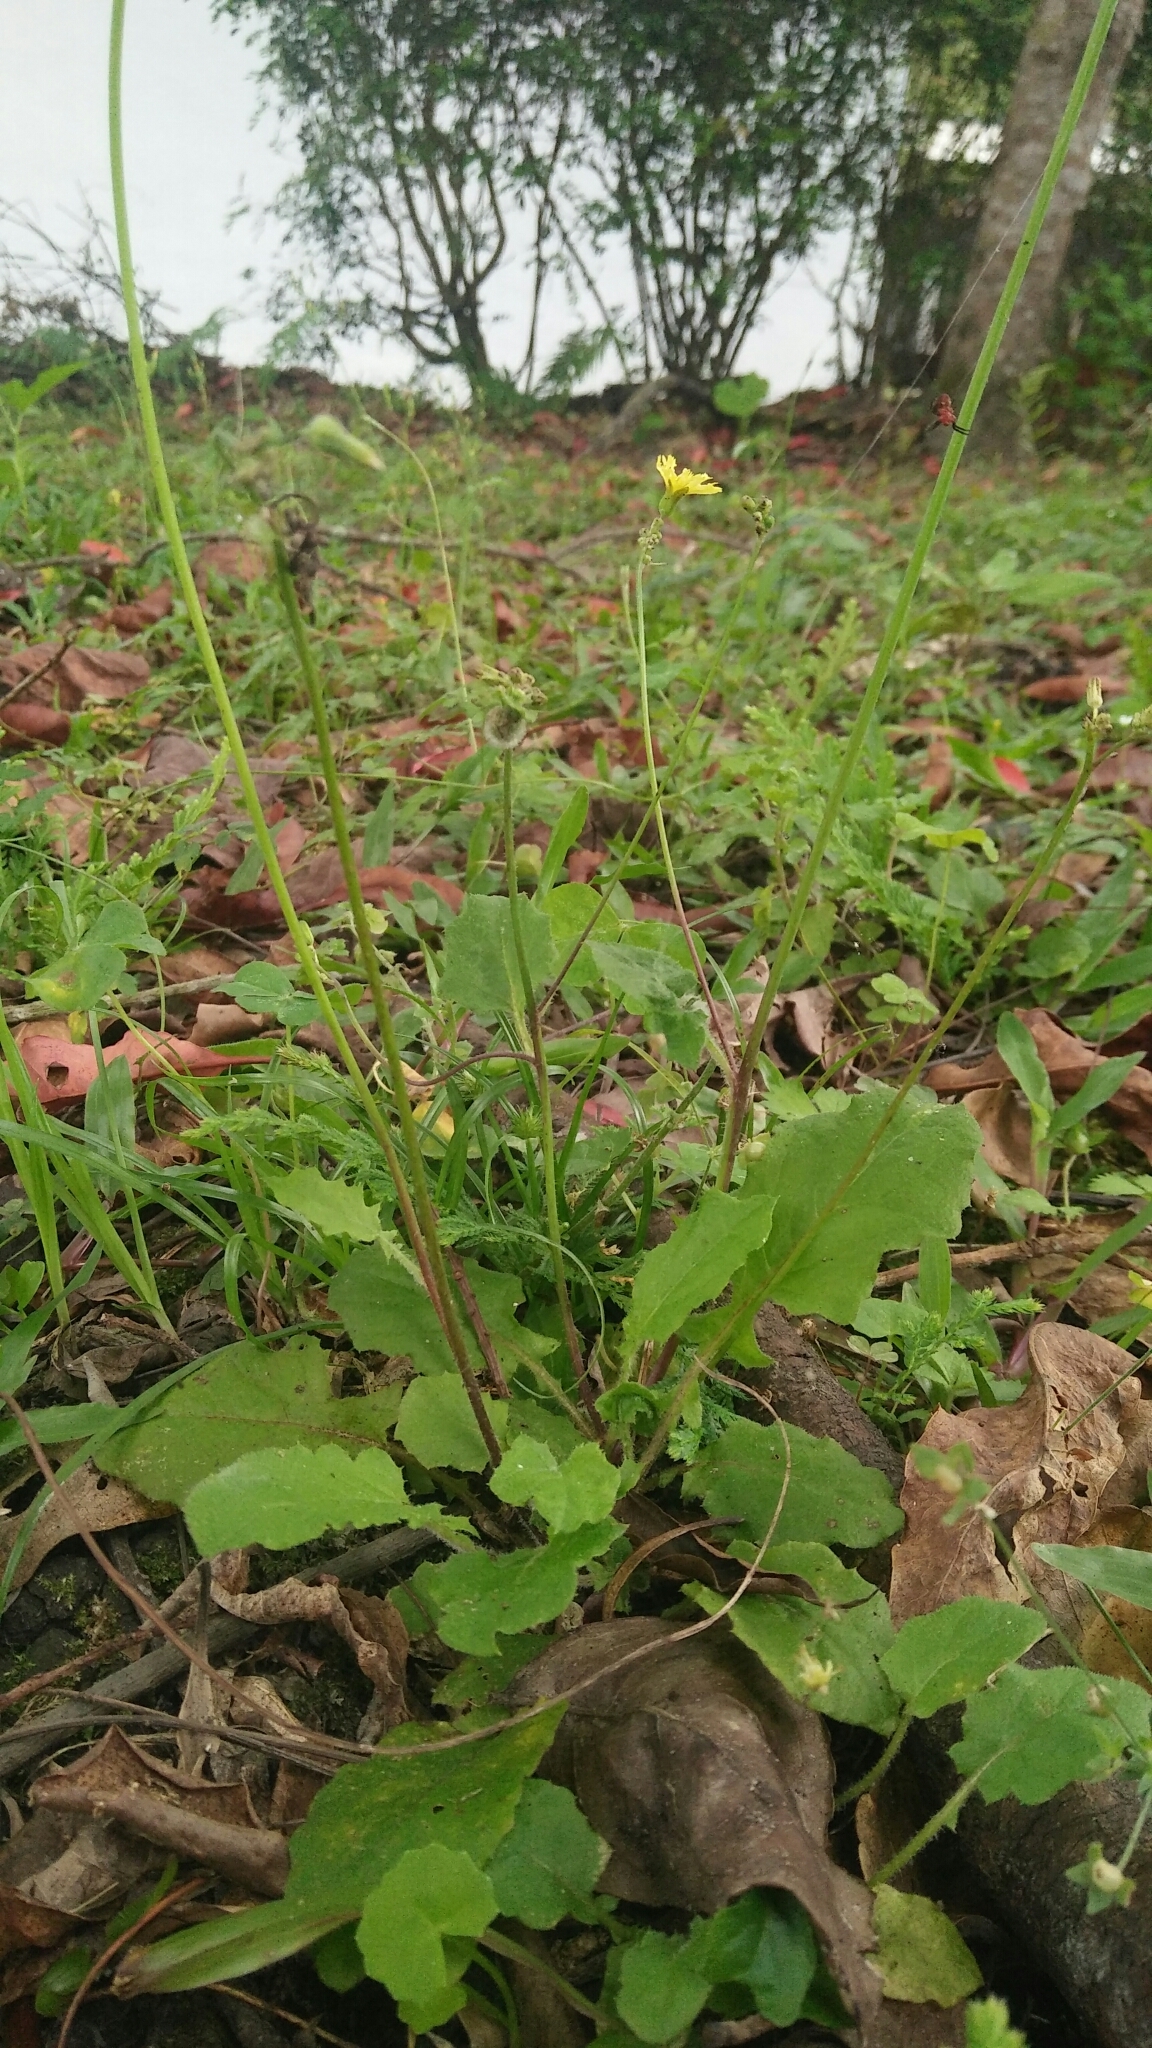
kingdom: Plantae
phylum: Tracheophyta
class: Magnoliopsida
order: Asterales
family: Asteraceae
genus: Youngia
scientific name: Youngia japonica
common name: Oriental false hawksbeard
